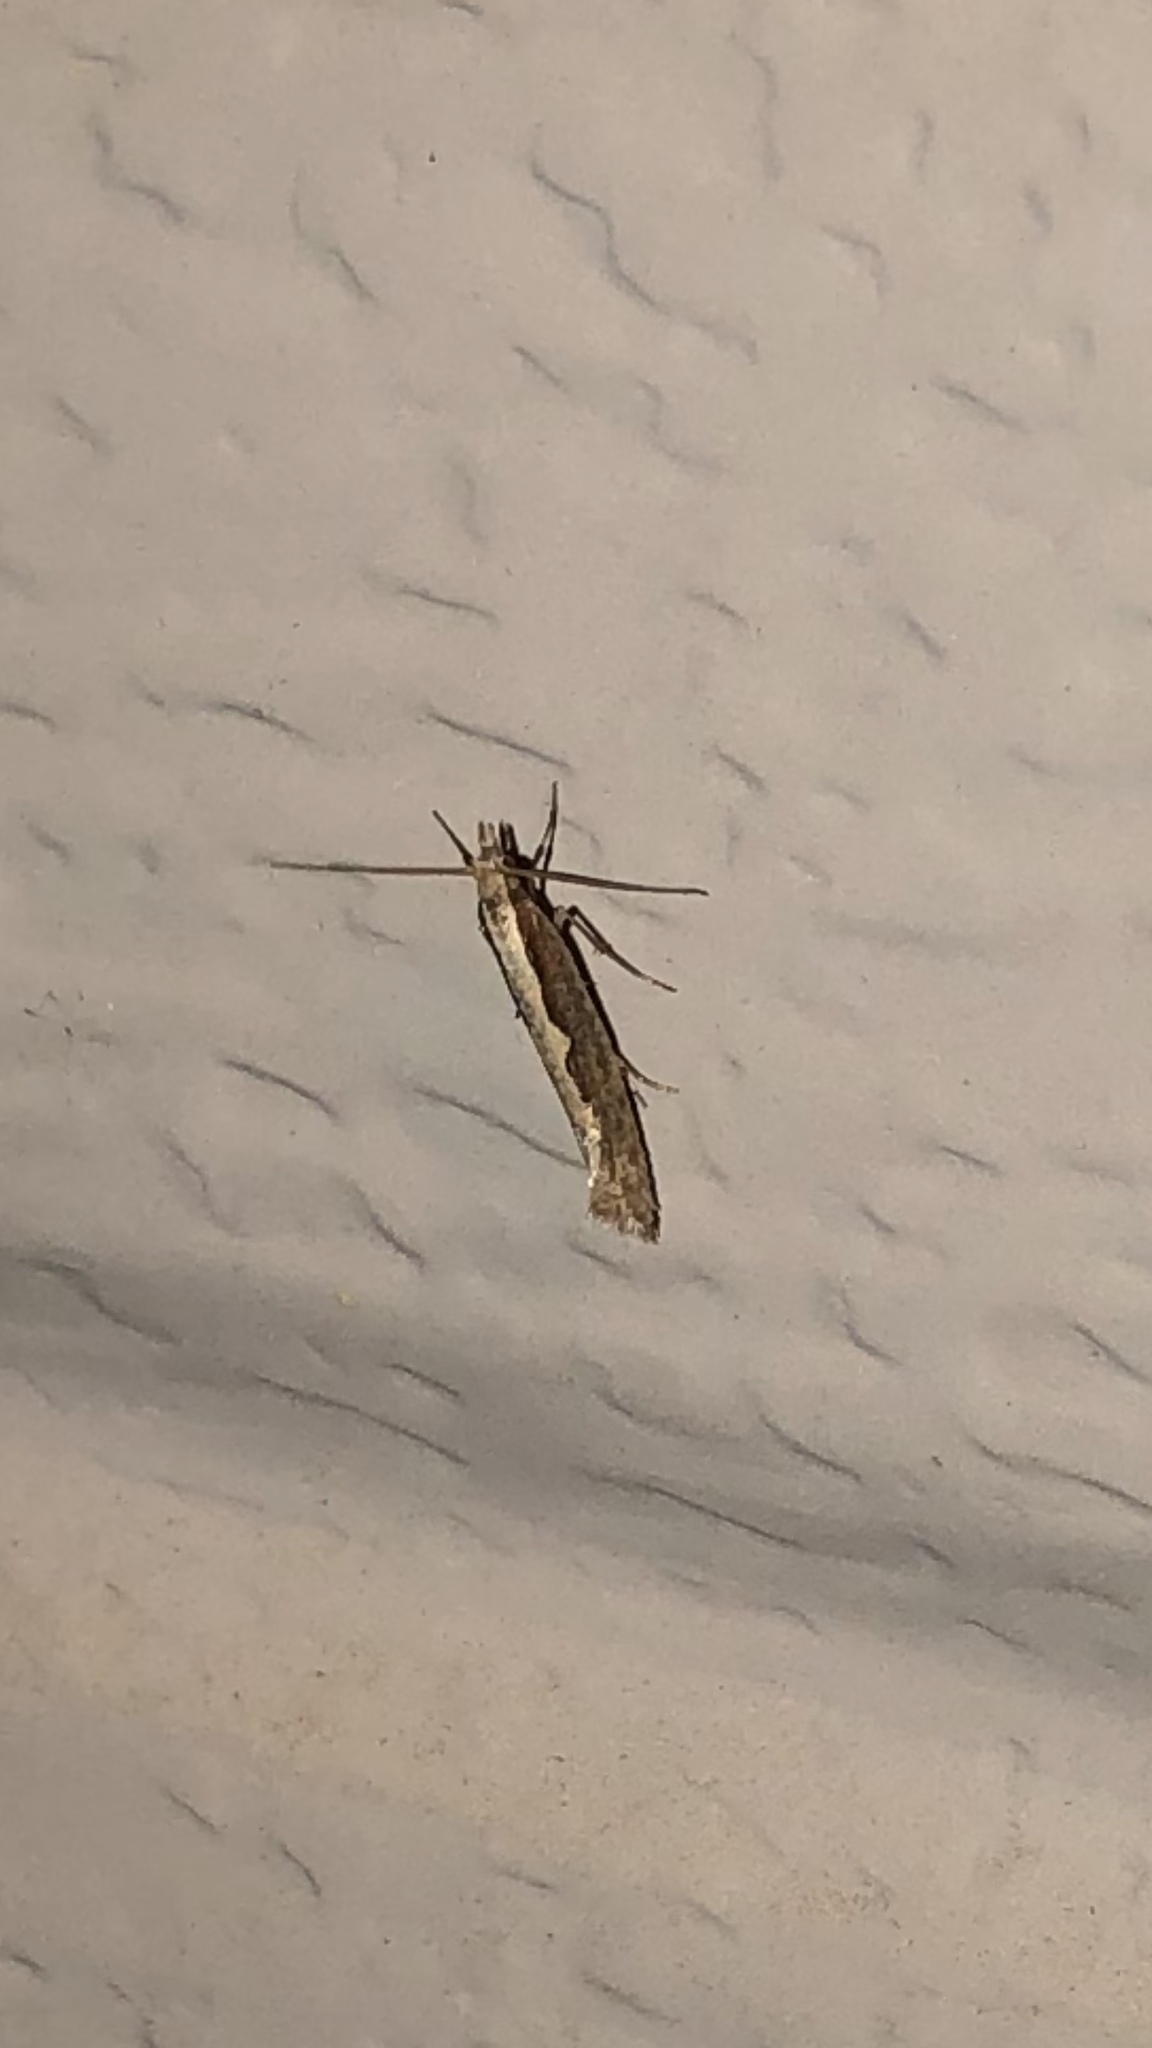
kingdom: Animalia
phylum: Arthropoda
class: Insecta
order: Lepidoptera
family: Plutellidae
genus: Plutella
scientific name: Plutella xylostella
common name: Diamond-back moth
